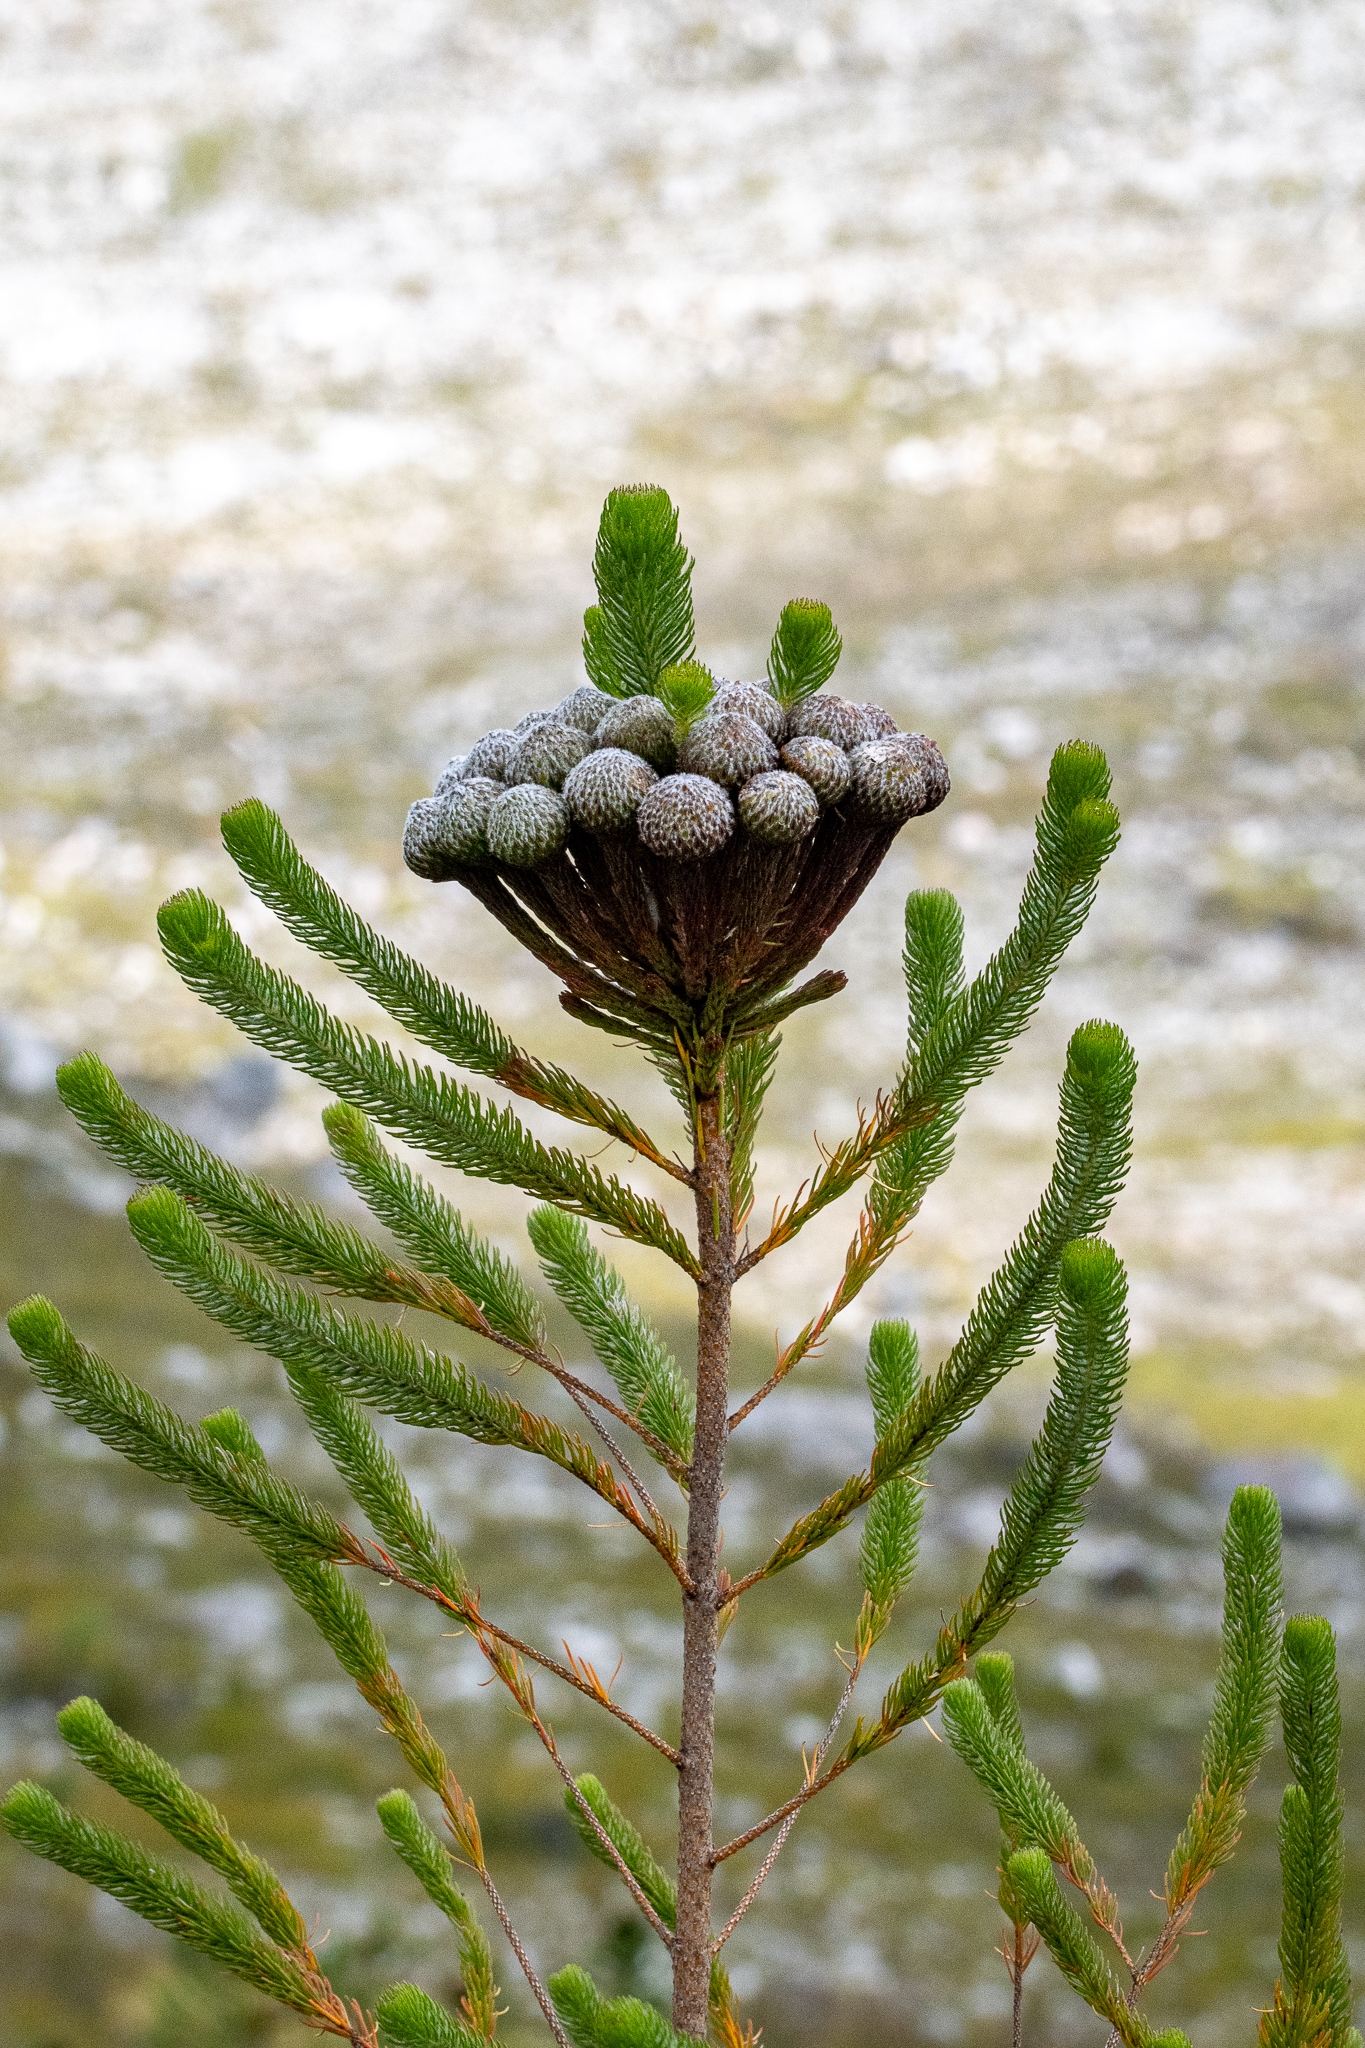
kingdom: Plantae
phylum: Tracheophyta
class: Magnoliopsida
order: Bruniales
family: Bruniaceae
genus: Berzelia
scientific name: Berzelia albiflora
